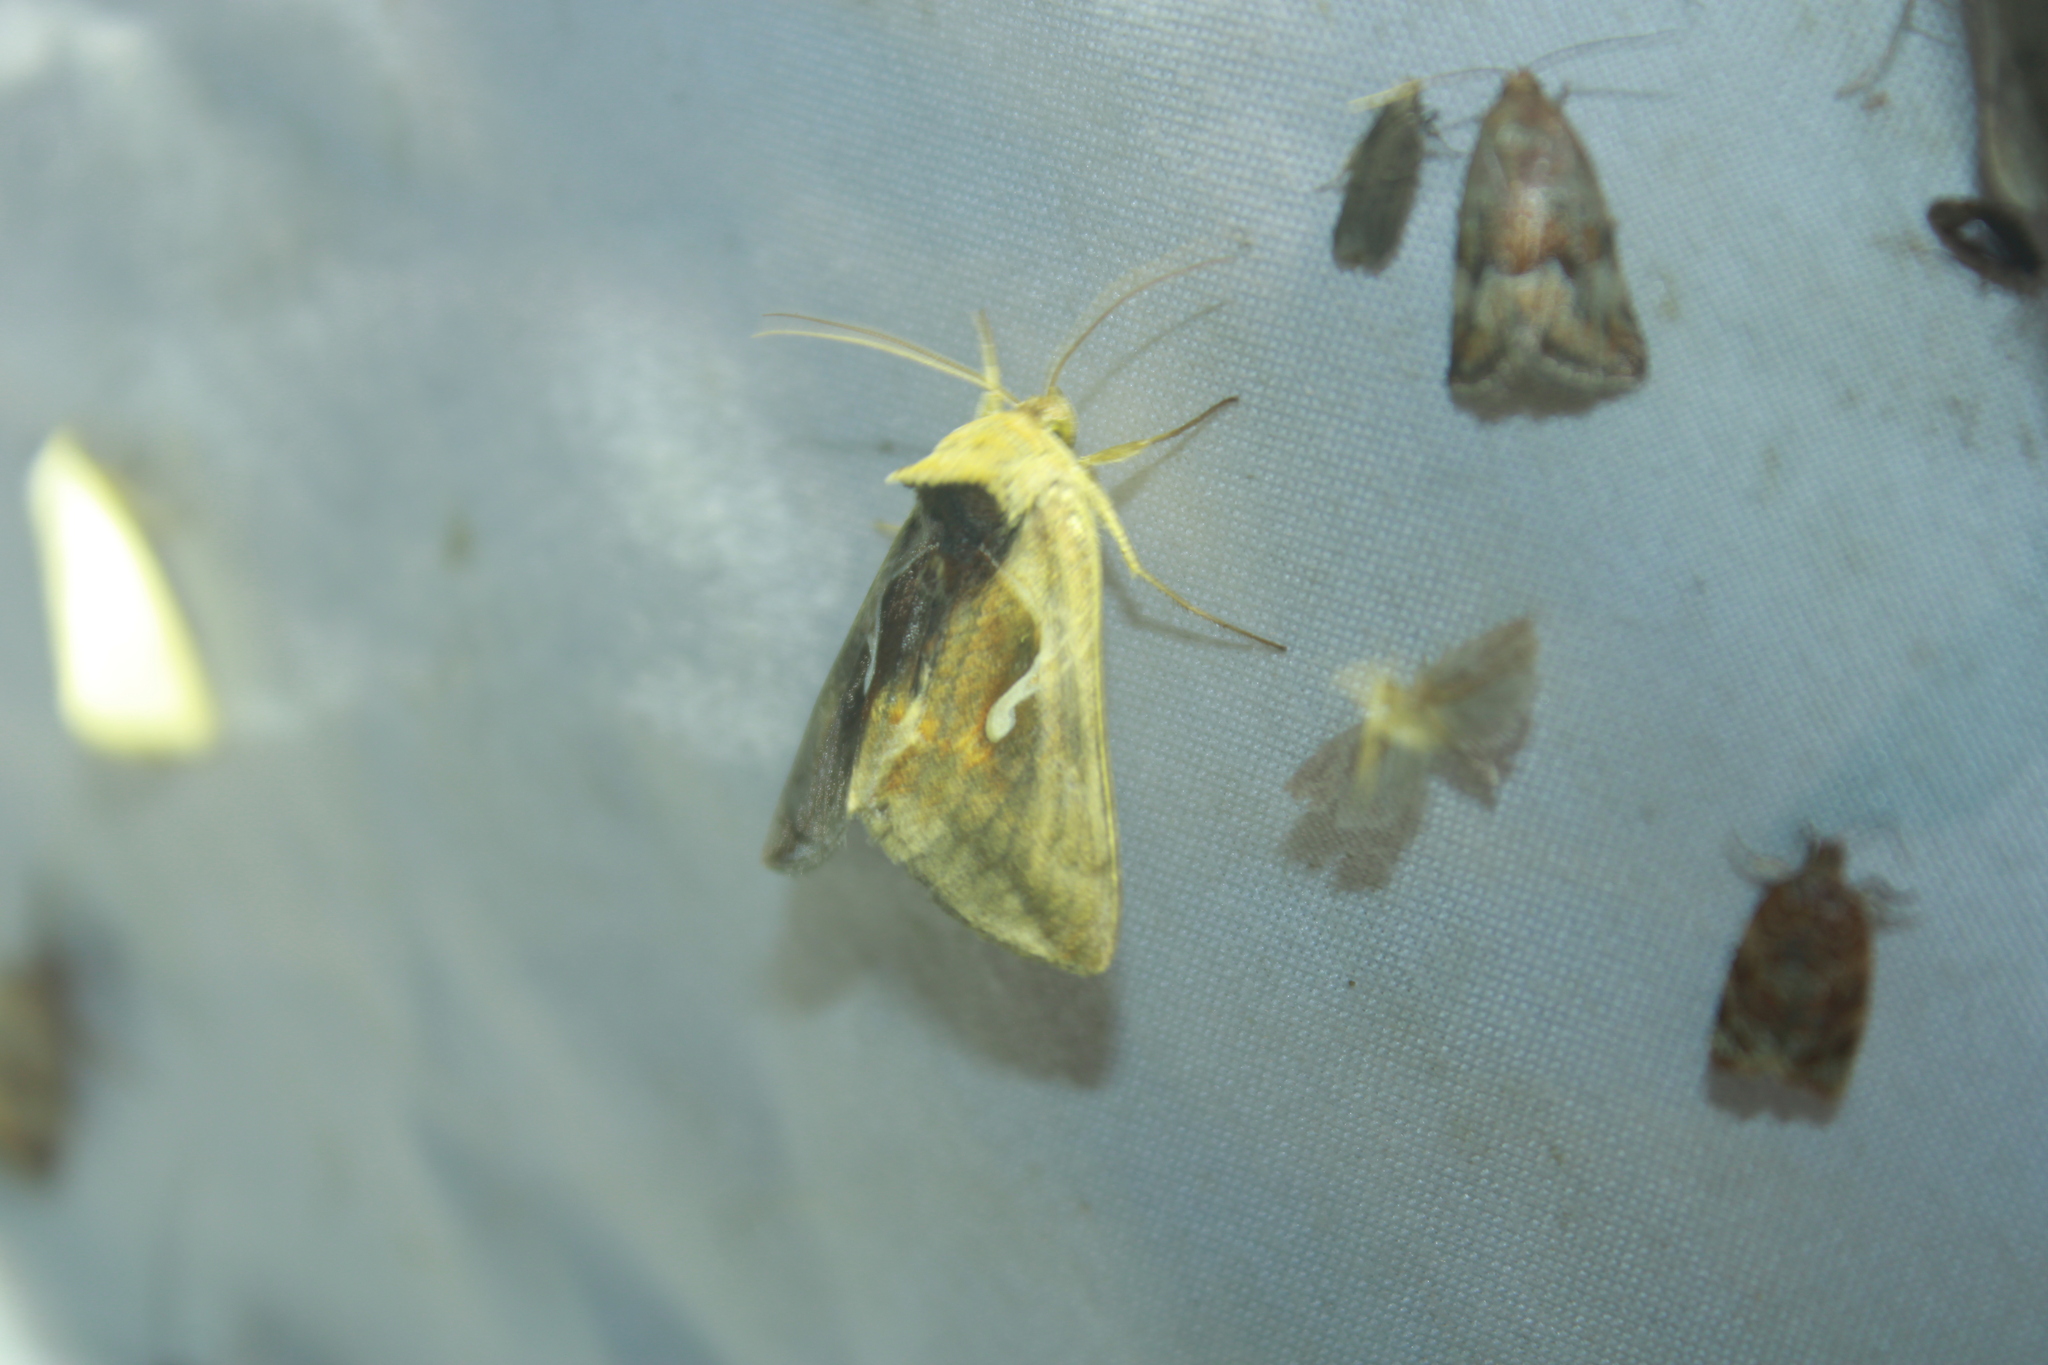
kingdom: Animalia
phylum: Arthropoda
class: Insecta
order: Lepidoptera
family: Noctuidae
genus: Anagrapha
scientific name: Anagrapha falcifera
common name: Celery looper
